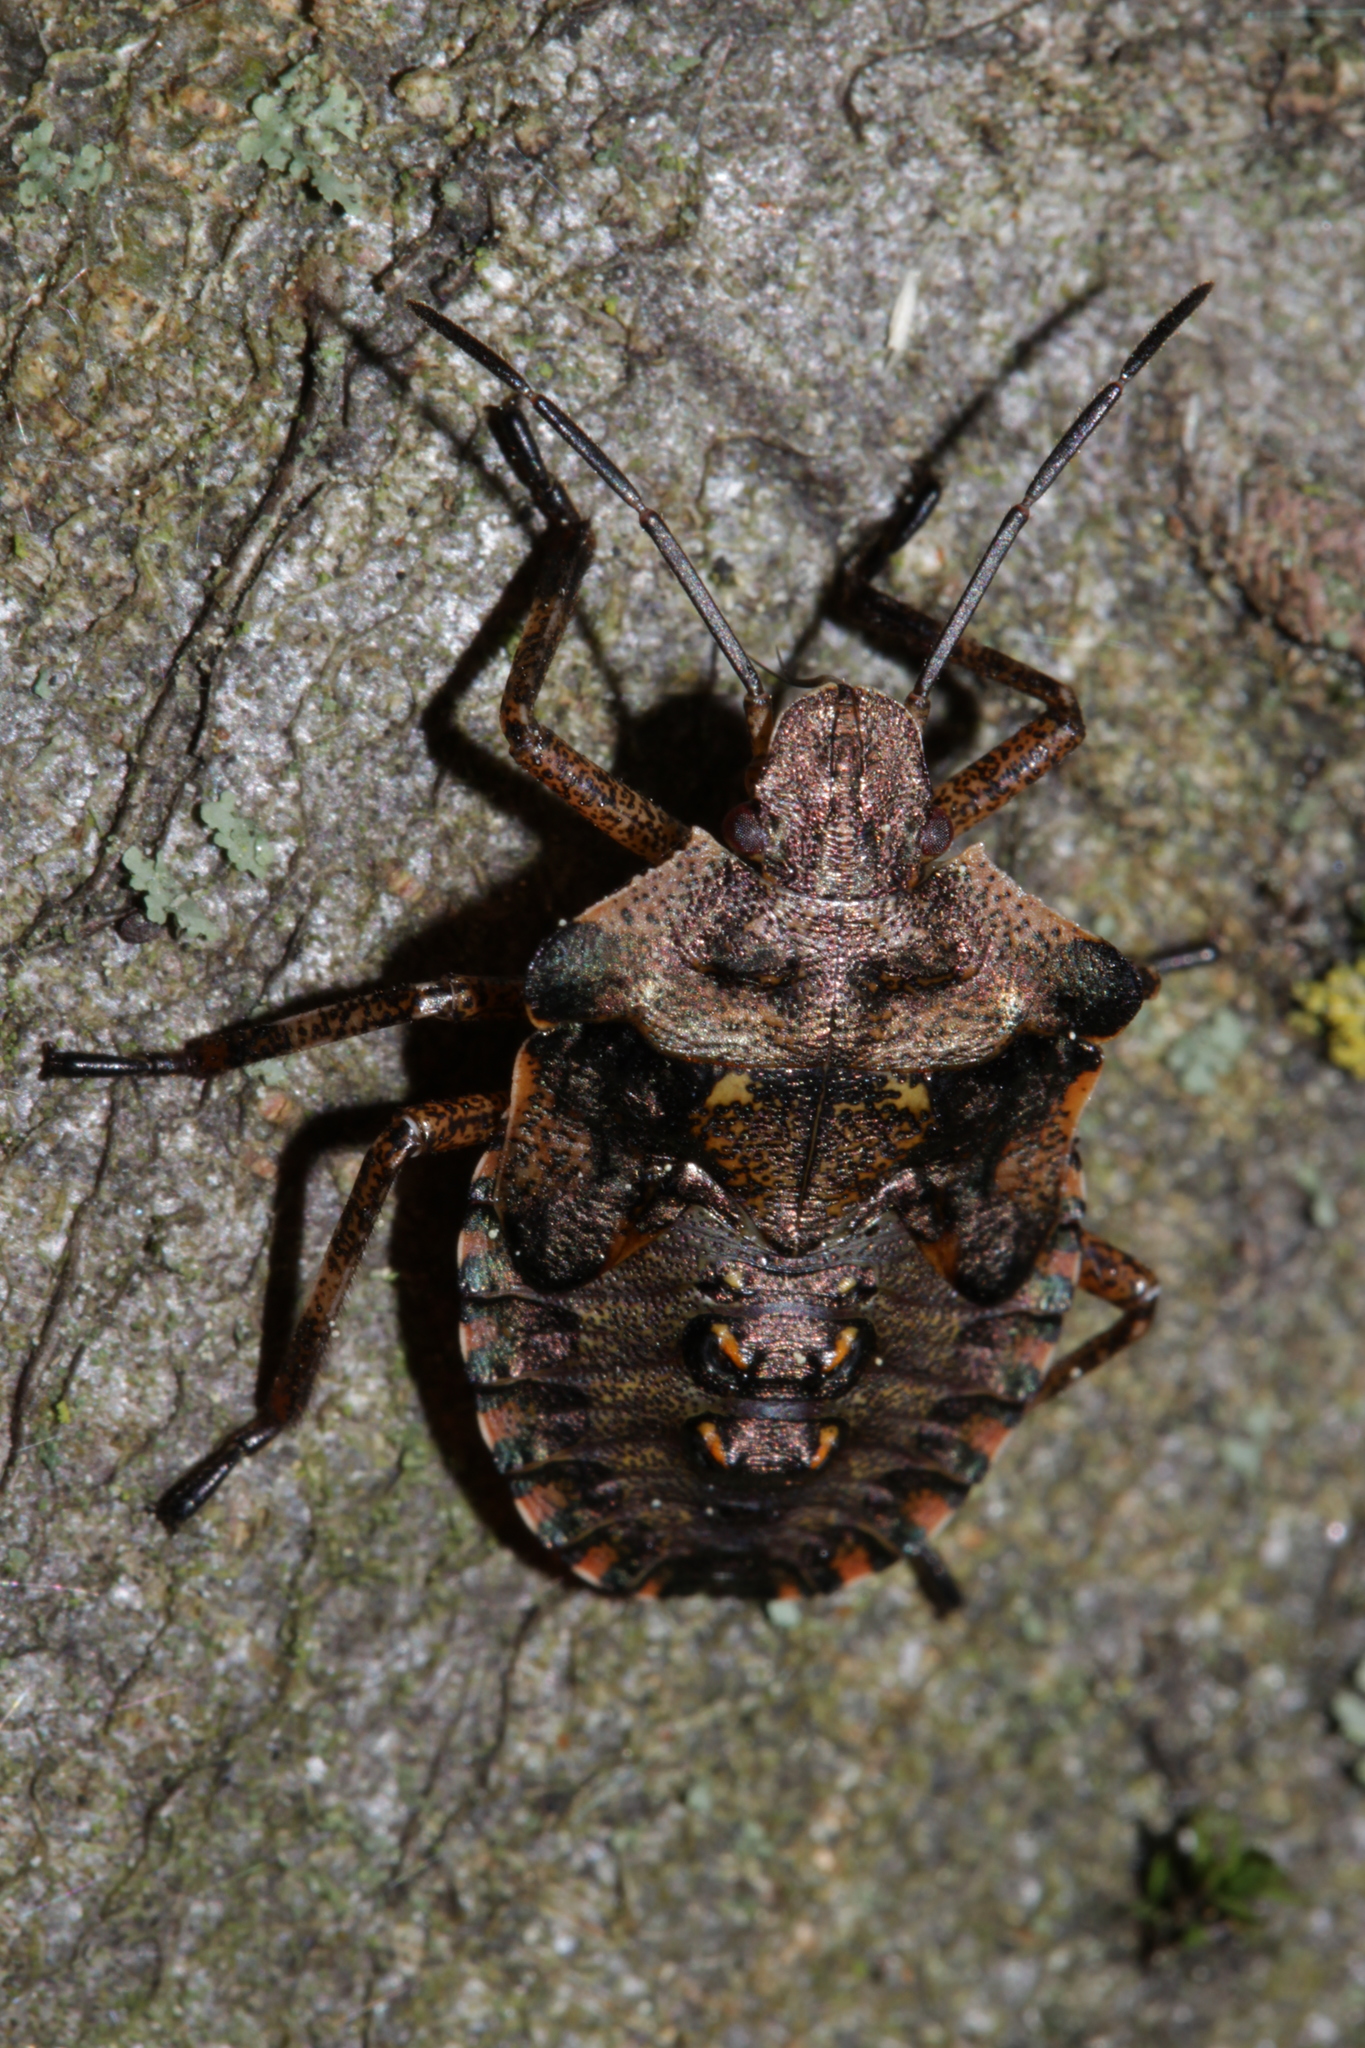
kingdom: Animalia
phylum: Arthropoda
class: Insecta
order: Hemiptera
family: Pentatomidae
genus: Pentatoma
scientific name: Pentatoma rufipes
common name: Forest bug
